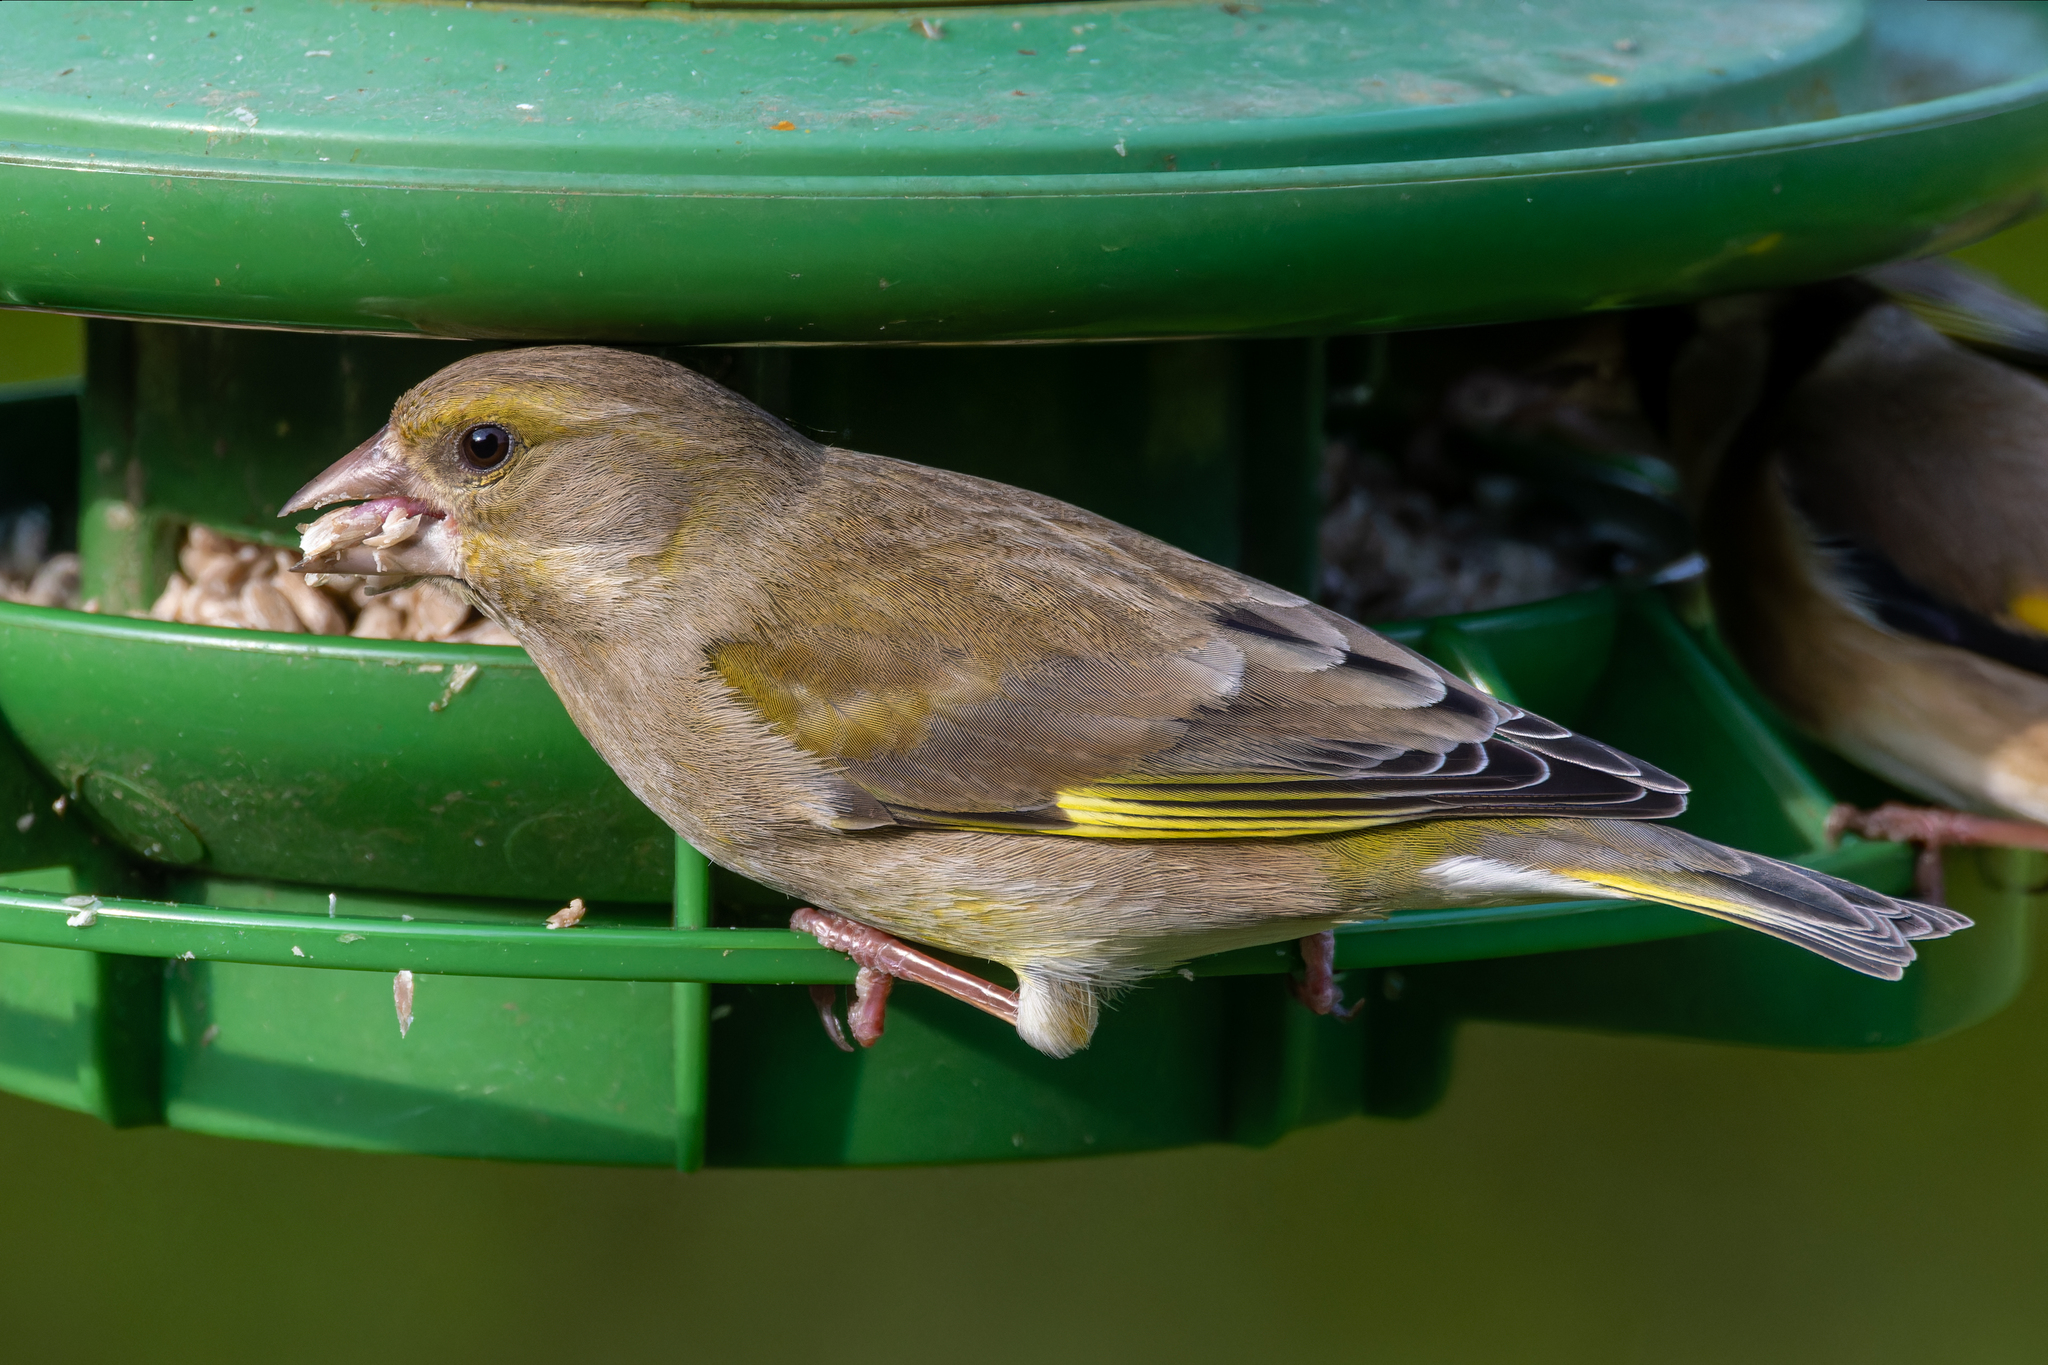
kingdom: Plantae
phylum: Tracheophyta
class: Liliopsida
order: Poales
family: Poaceae
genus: Chloris
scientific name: Chloris chloris
